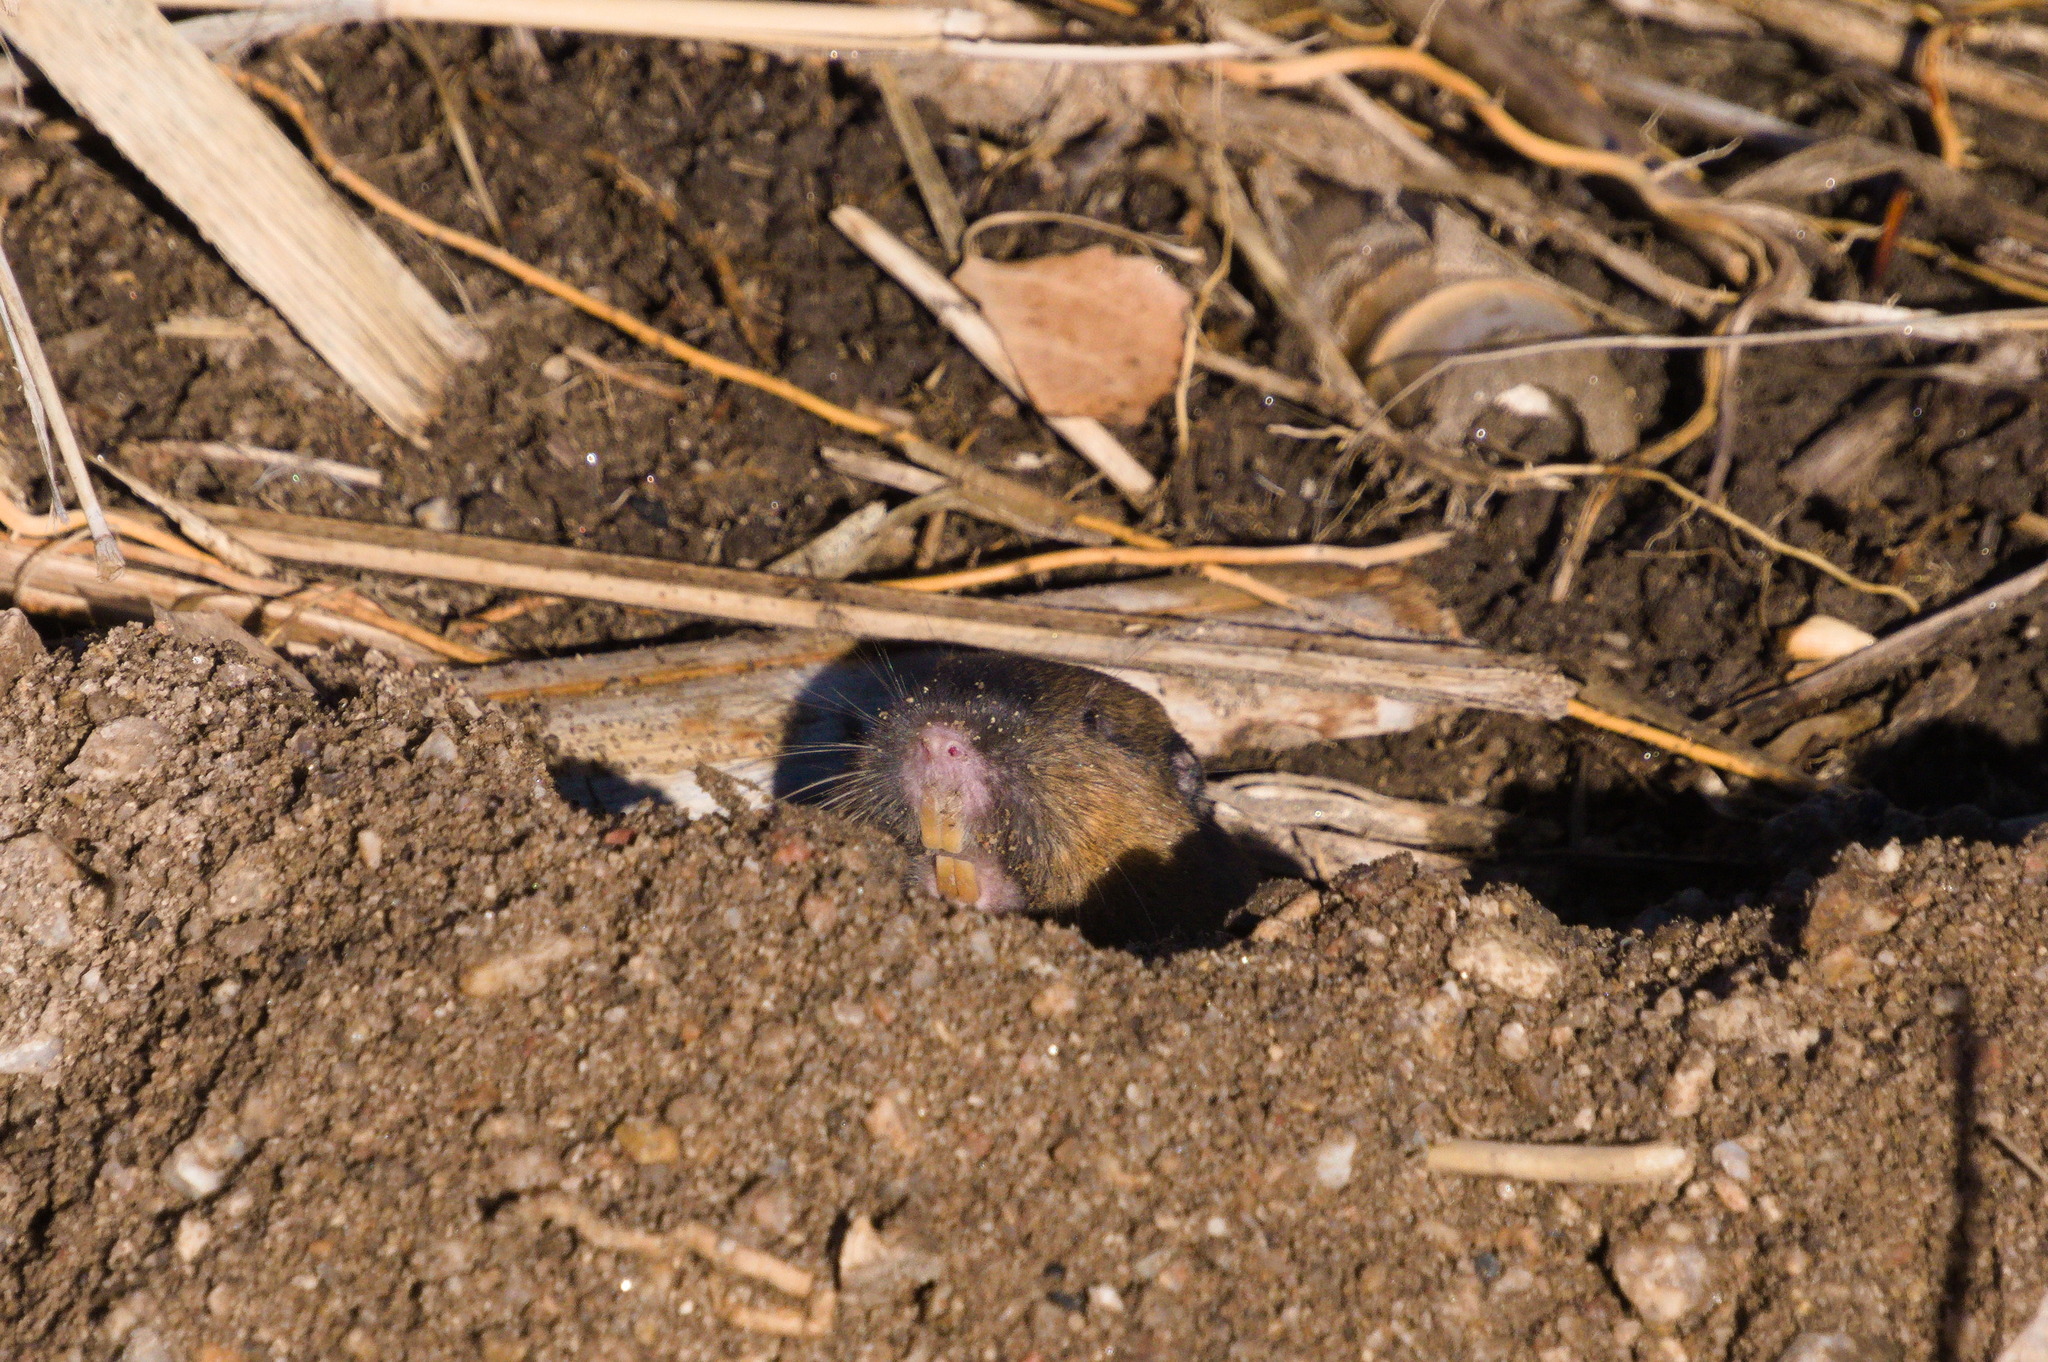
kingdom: Animalia
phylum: Chordata
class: Mammalia
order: Rodentia
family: Geomyidae
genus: Thomomys
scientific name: Thomomys bottae
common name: Botta's pocket gopher
